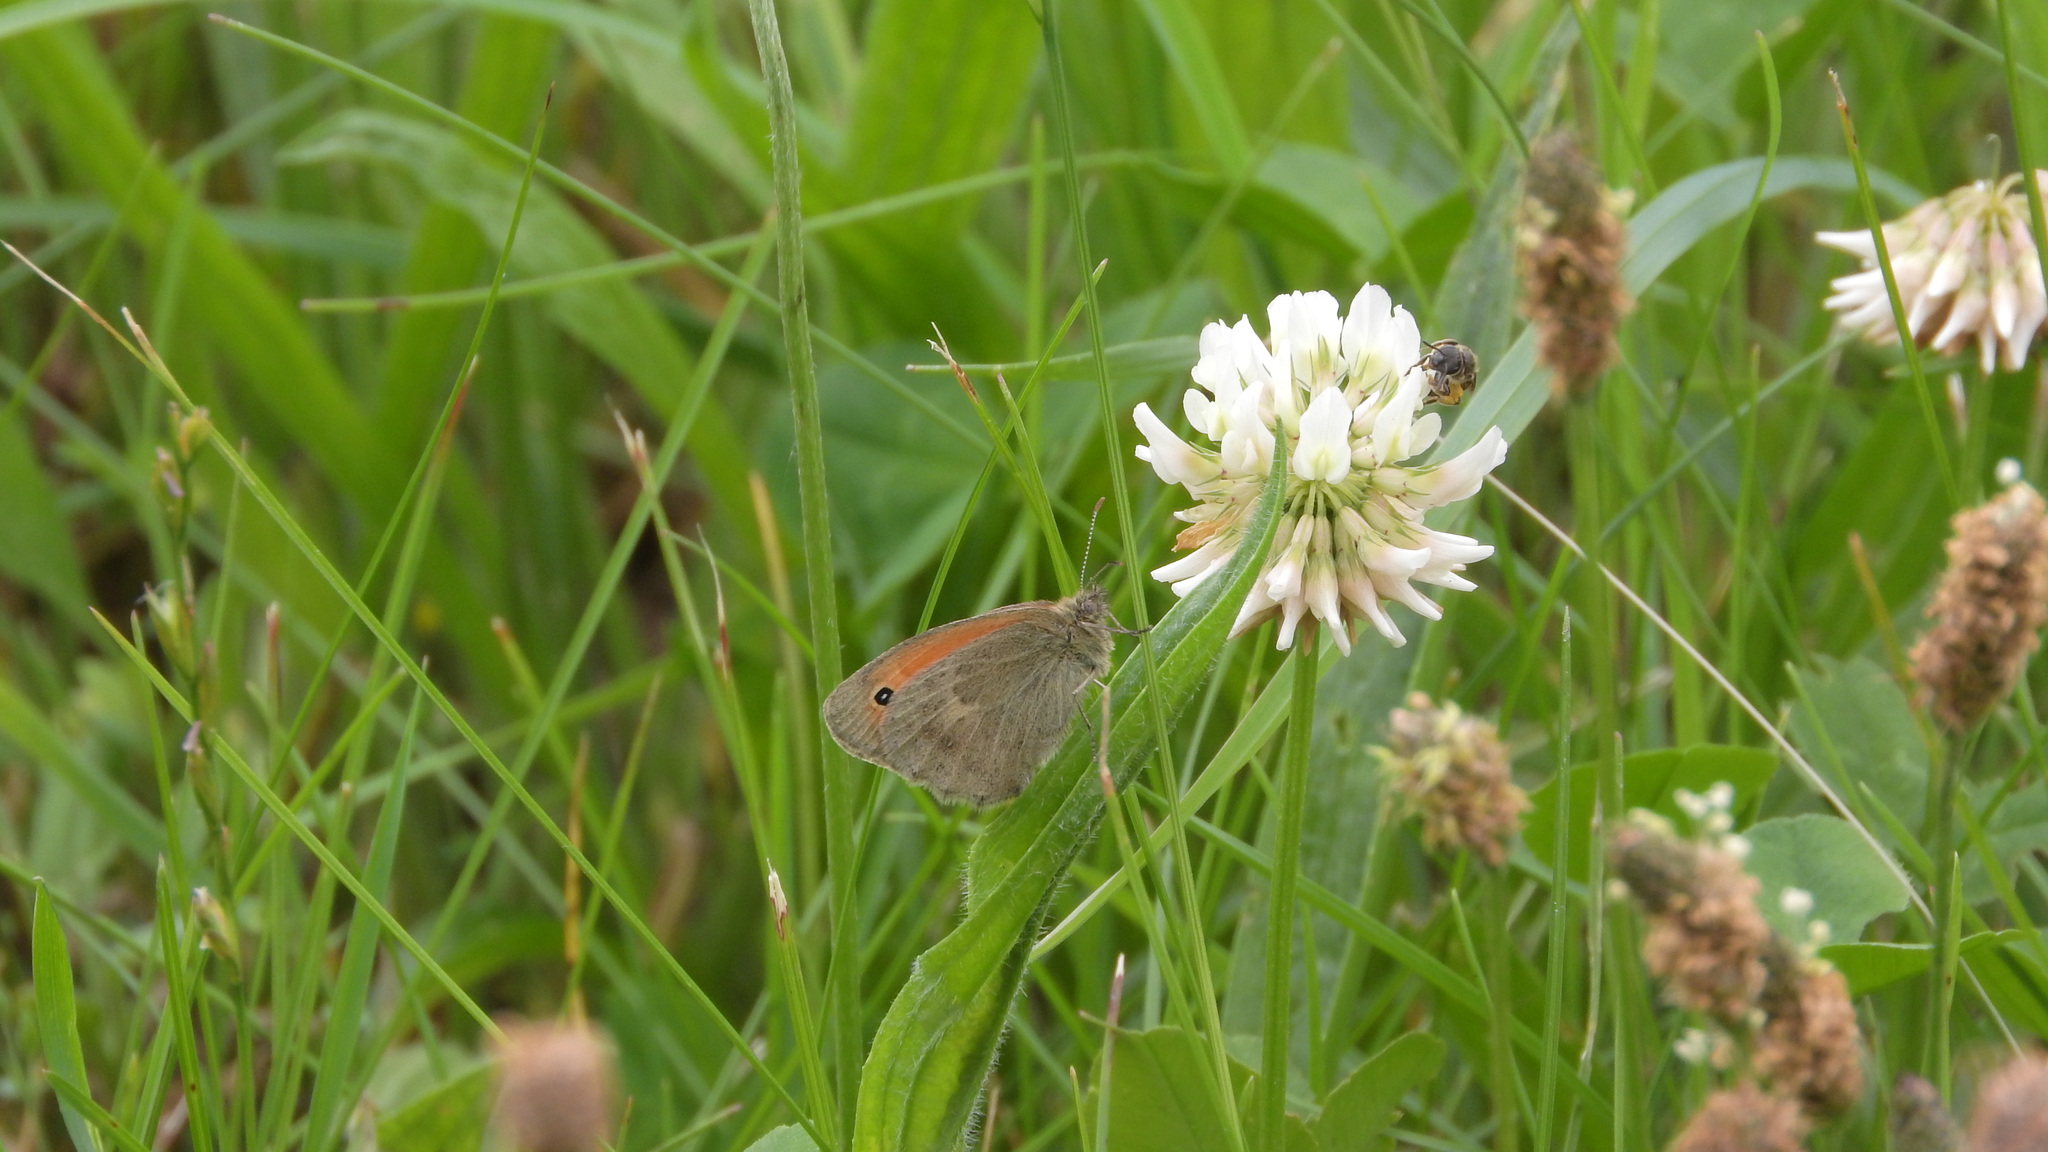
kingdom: Animalia
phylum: Arthropoda
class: Insecta
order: Lepidoptera
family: Nymphalidae
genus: Coenonympha
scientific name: Coenonympha pamphilus
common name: Small heath
